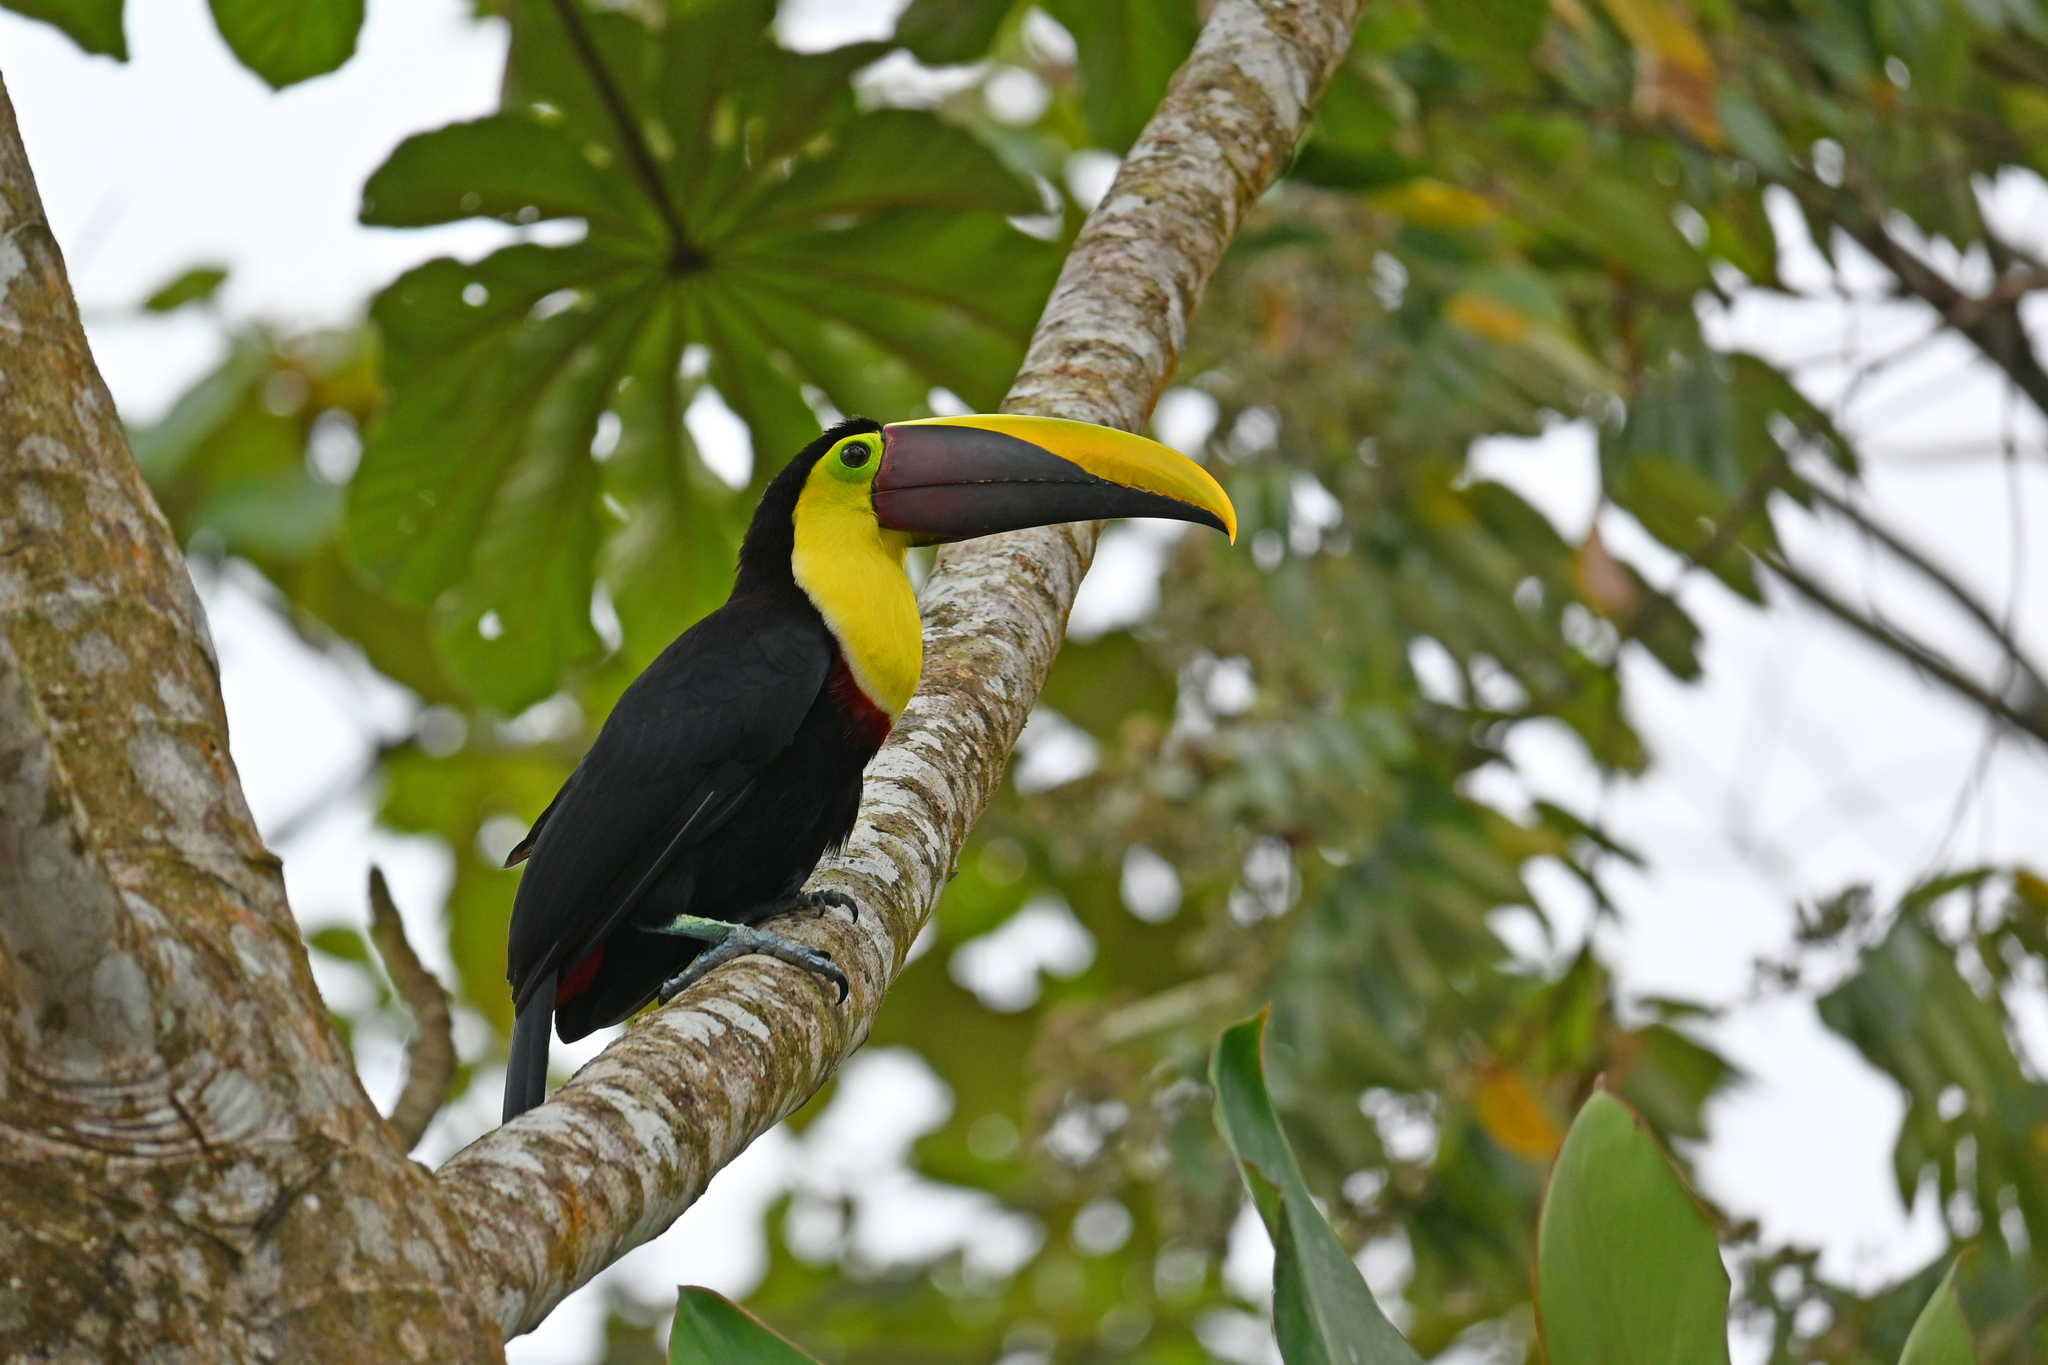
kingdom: Animalia
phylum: Chordata
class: Aves
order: Piciformes
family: Ramphastidae
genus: Ramphastos
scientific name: Ramphastos ambiguus
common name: Yellow-throated toucan
